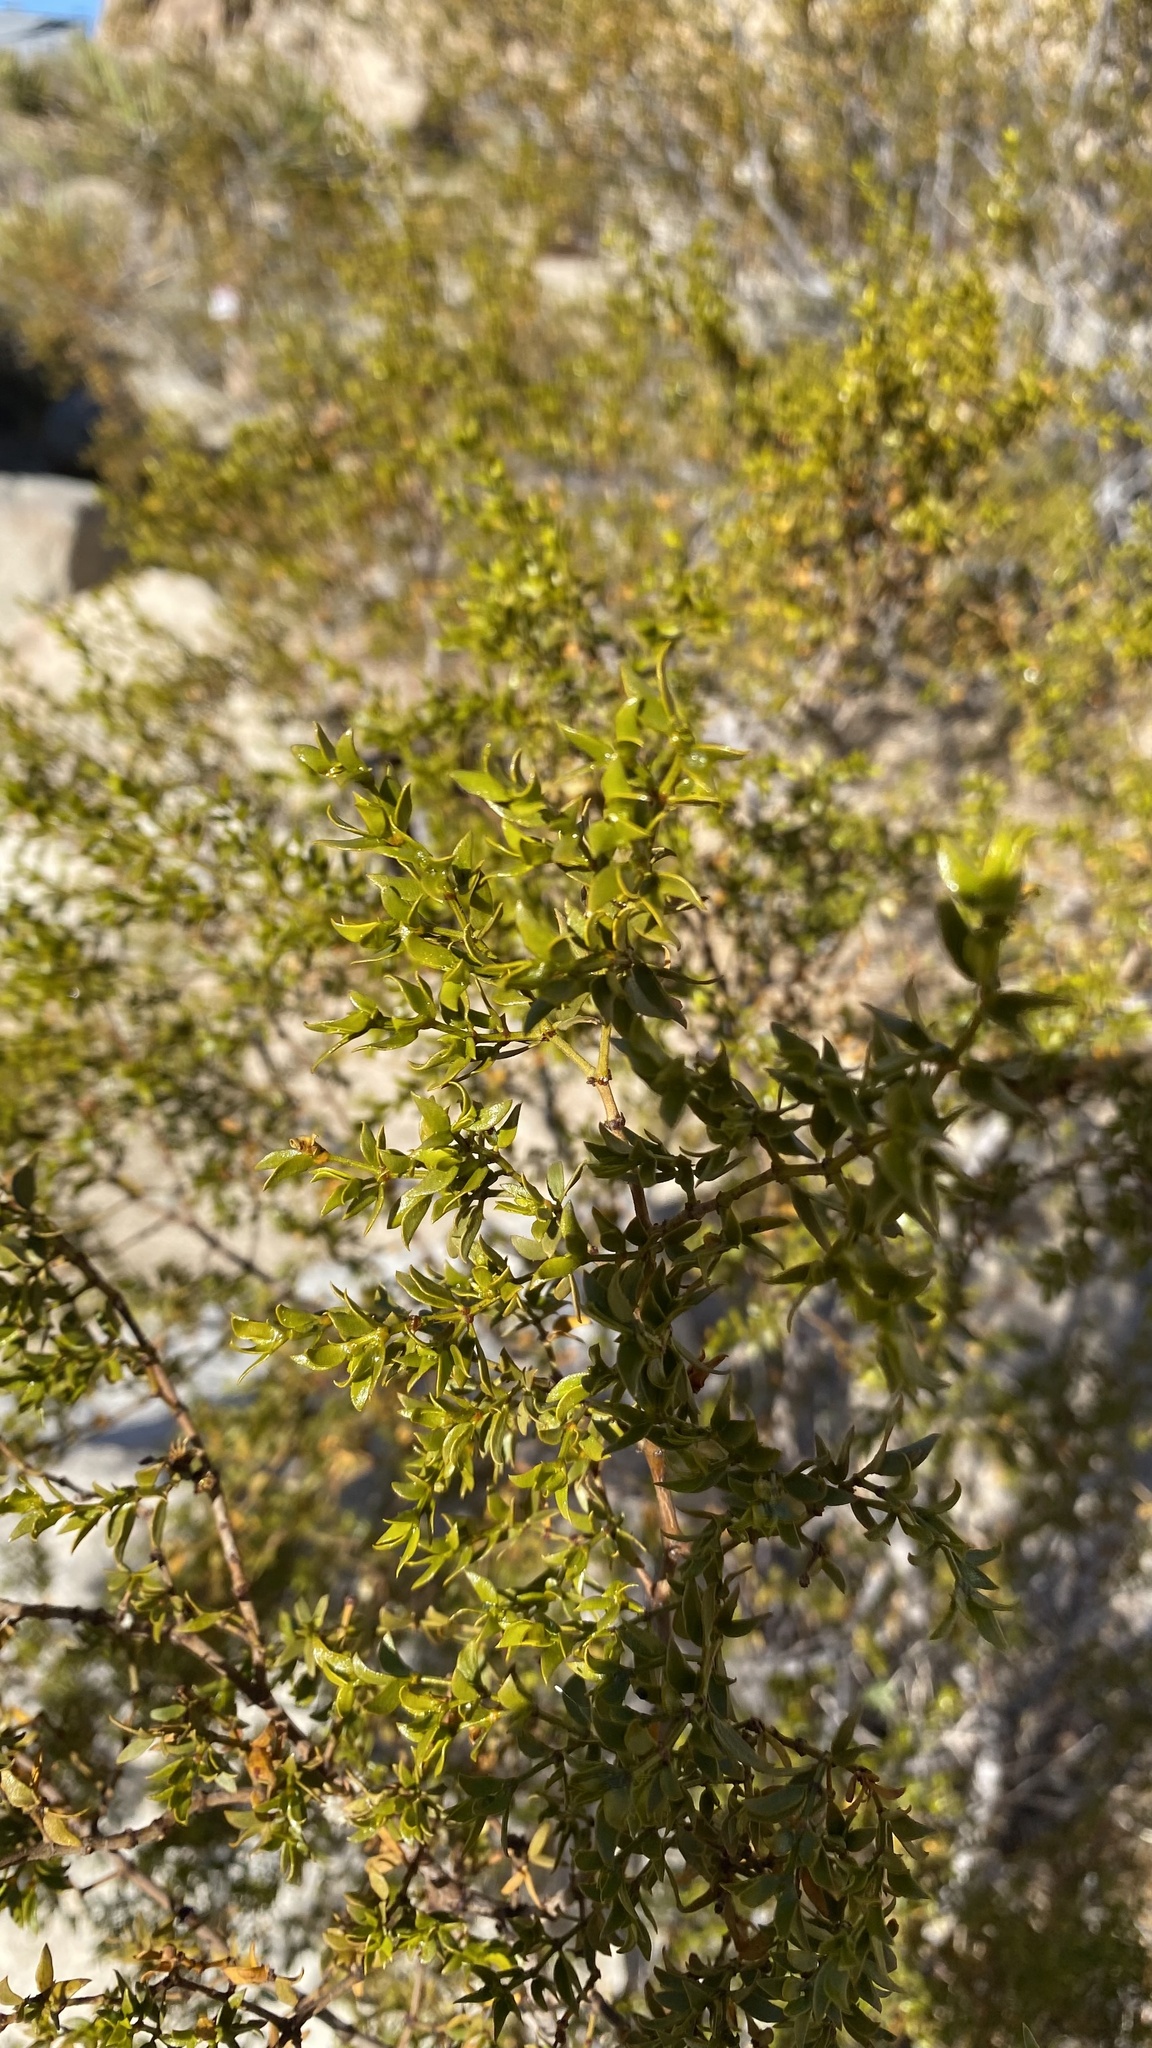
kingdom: Plantae
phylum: Tracheophyta
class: Magnoliopsida
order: Zygophyllales
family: Zygophyllaceae
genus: Larrea
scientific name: Larrea tridentata
